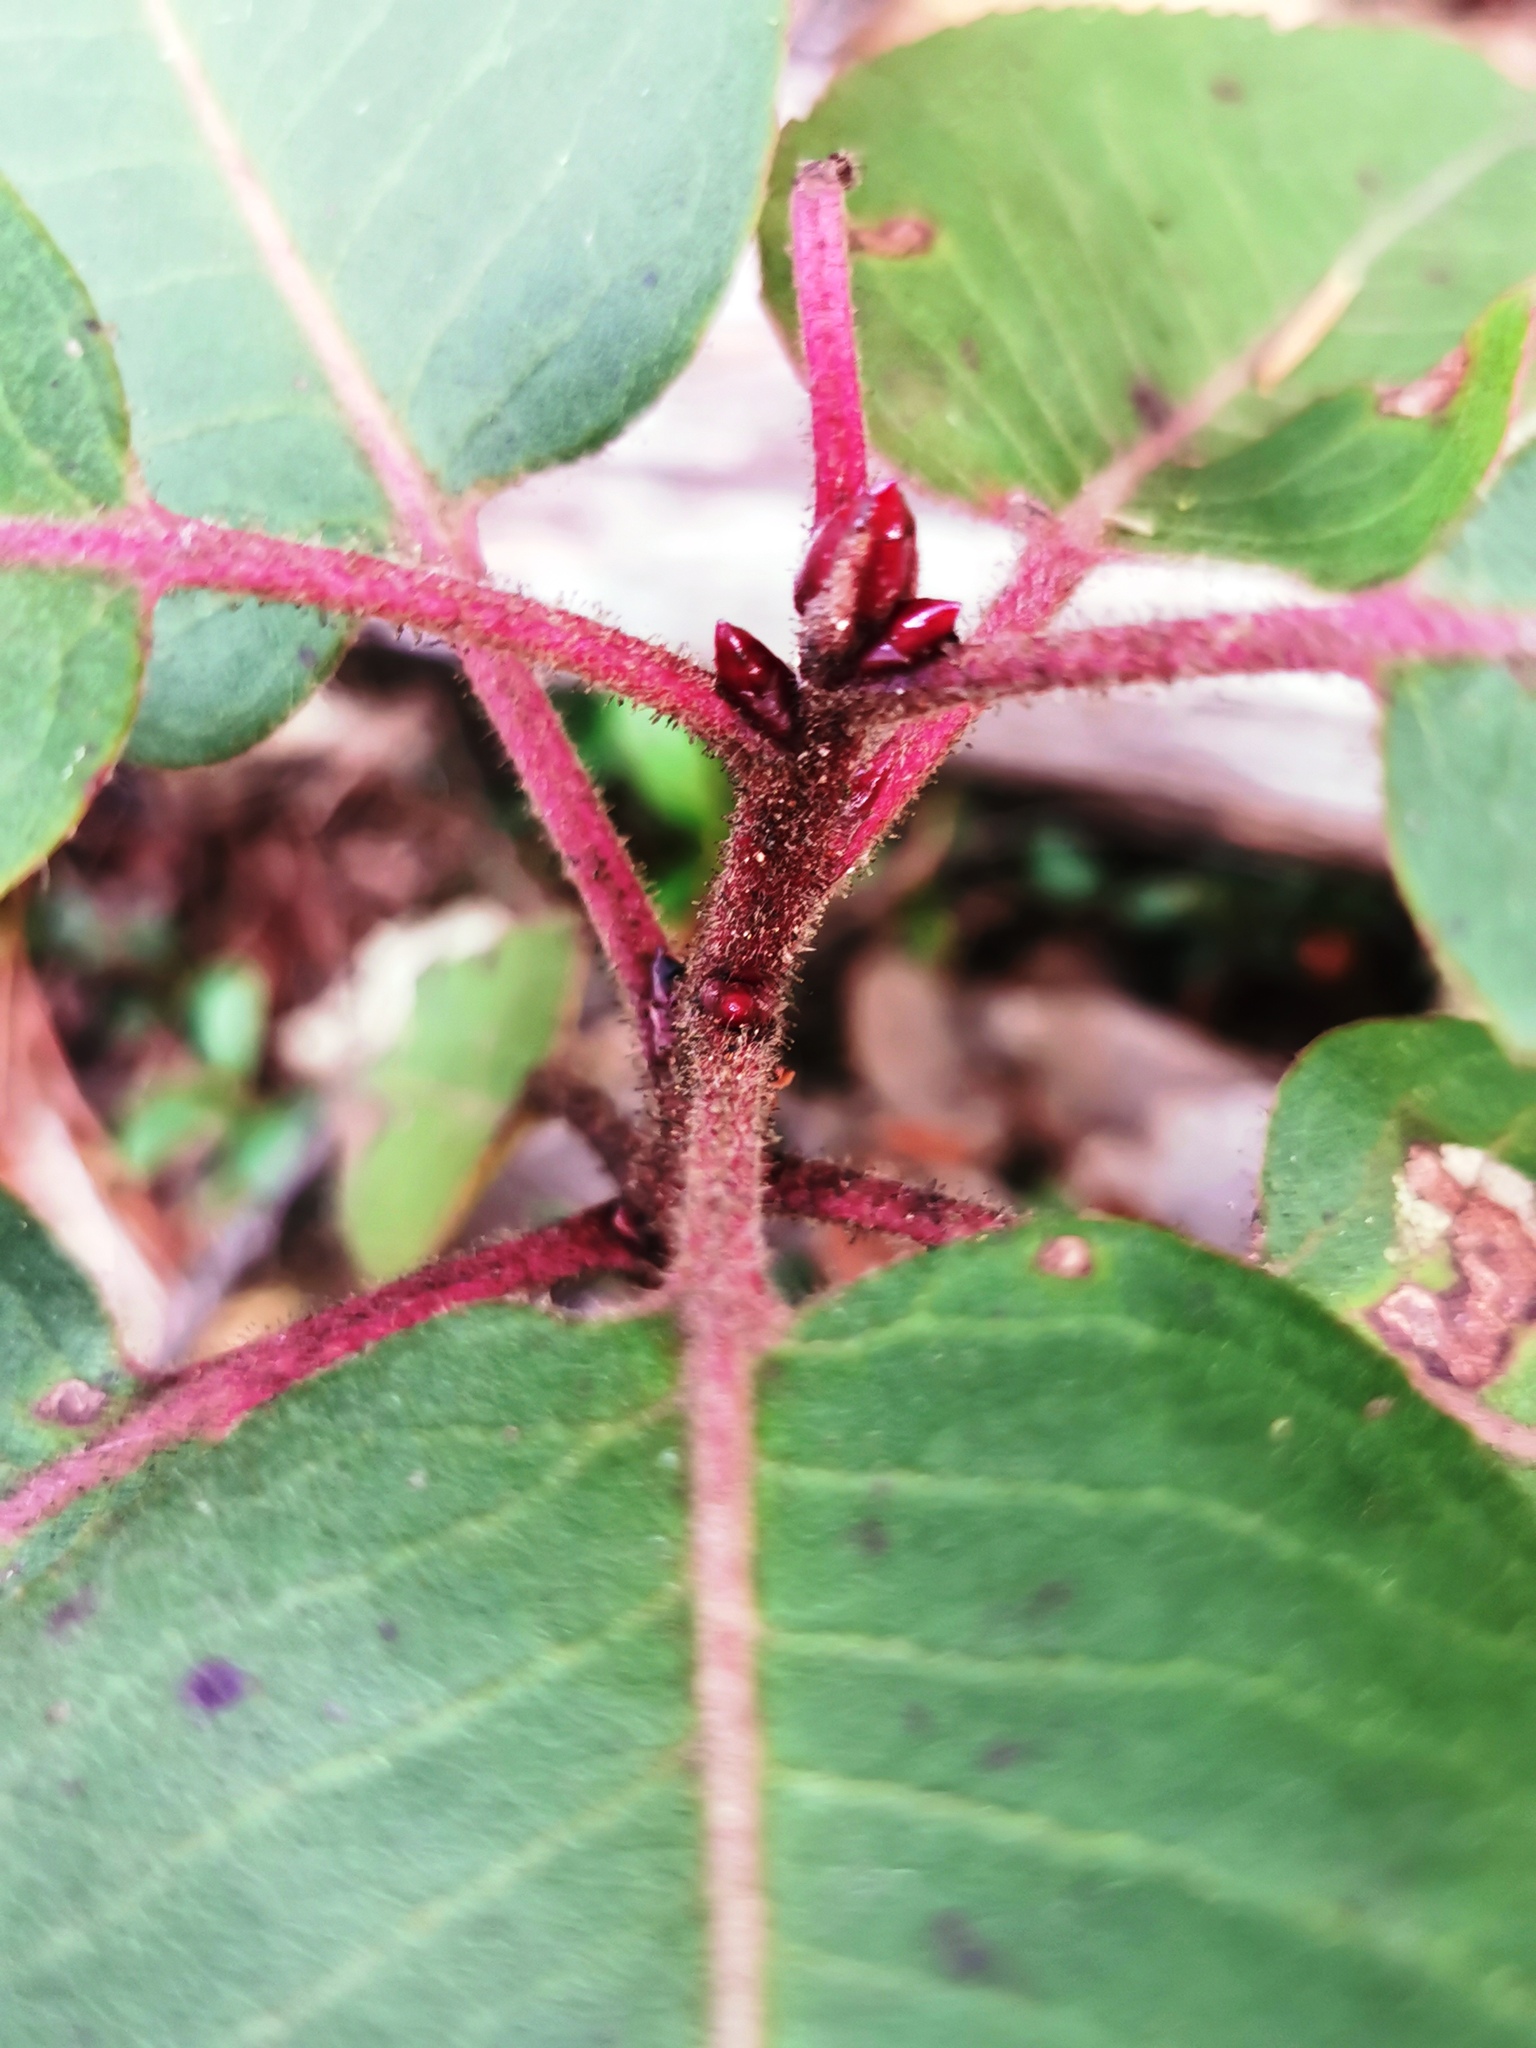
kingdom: Plantae
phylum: Tracheophyta
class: Magnoliopsida
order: Ericales
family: Ericaceae
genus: Arbutus
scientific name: Arbutus xalapensis
